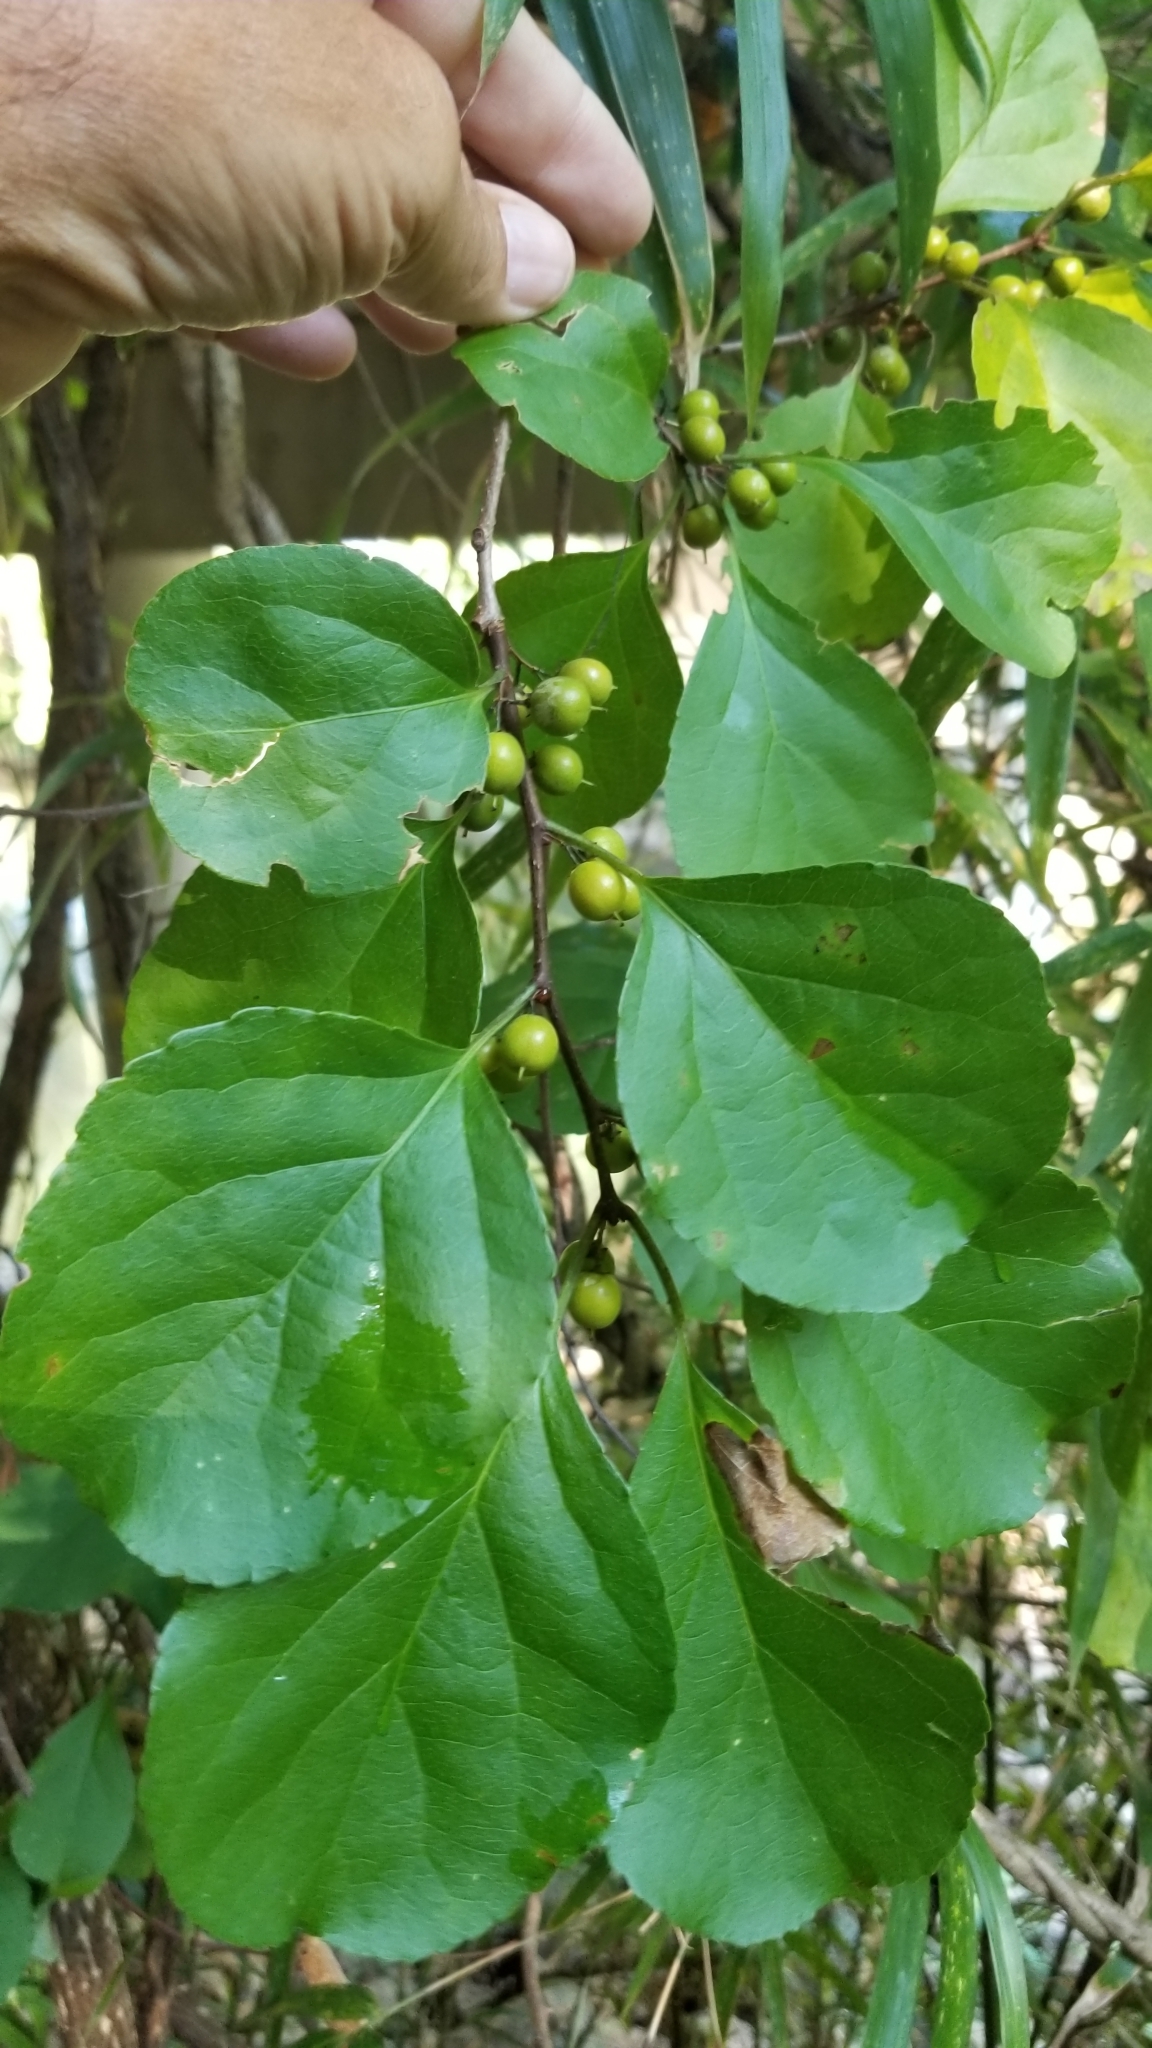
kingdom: Plantae
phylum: Tracheophyta
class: Magnoliopsida
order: Celastrales
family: Celastraceae
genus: Celastrus
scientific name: Celastrus orbiculatus
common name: Oriental bittersweet
